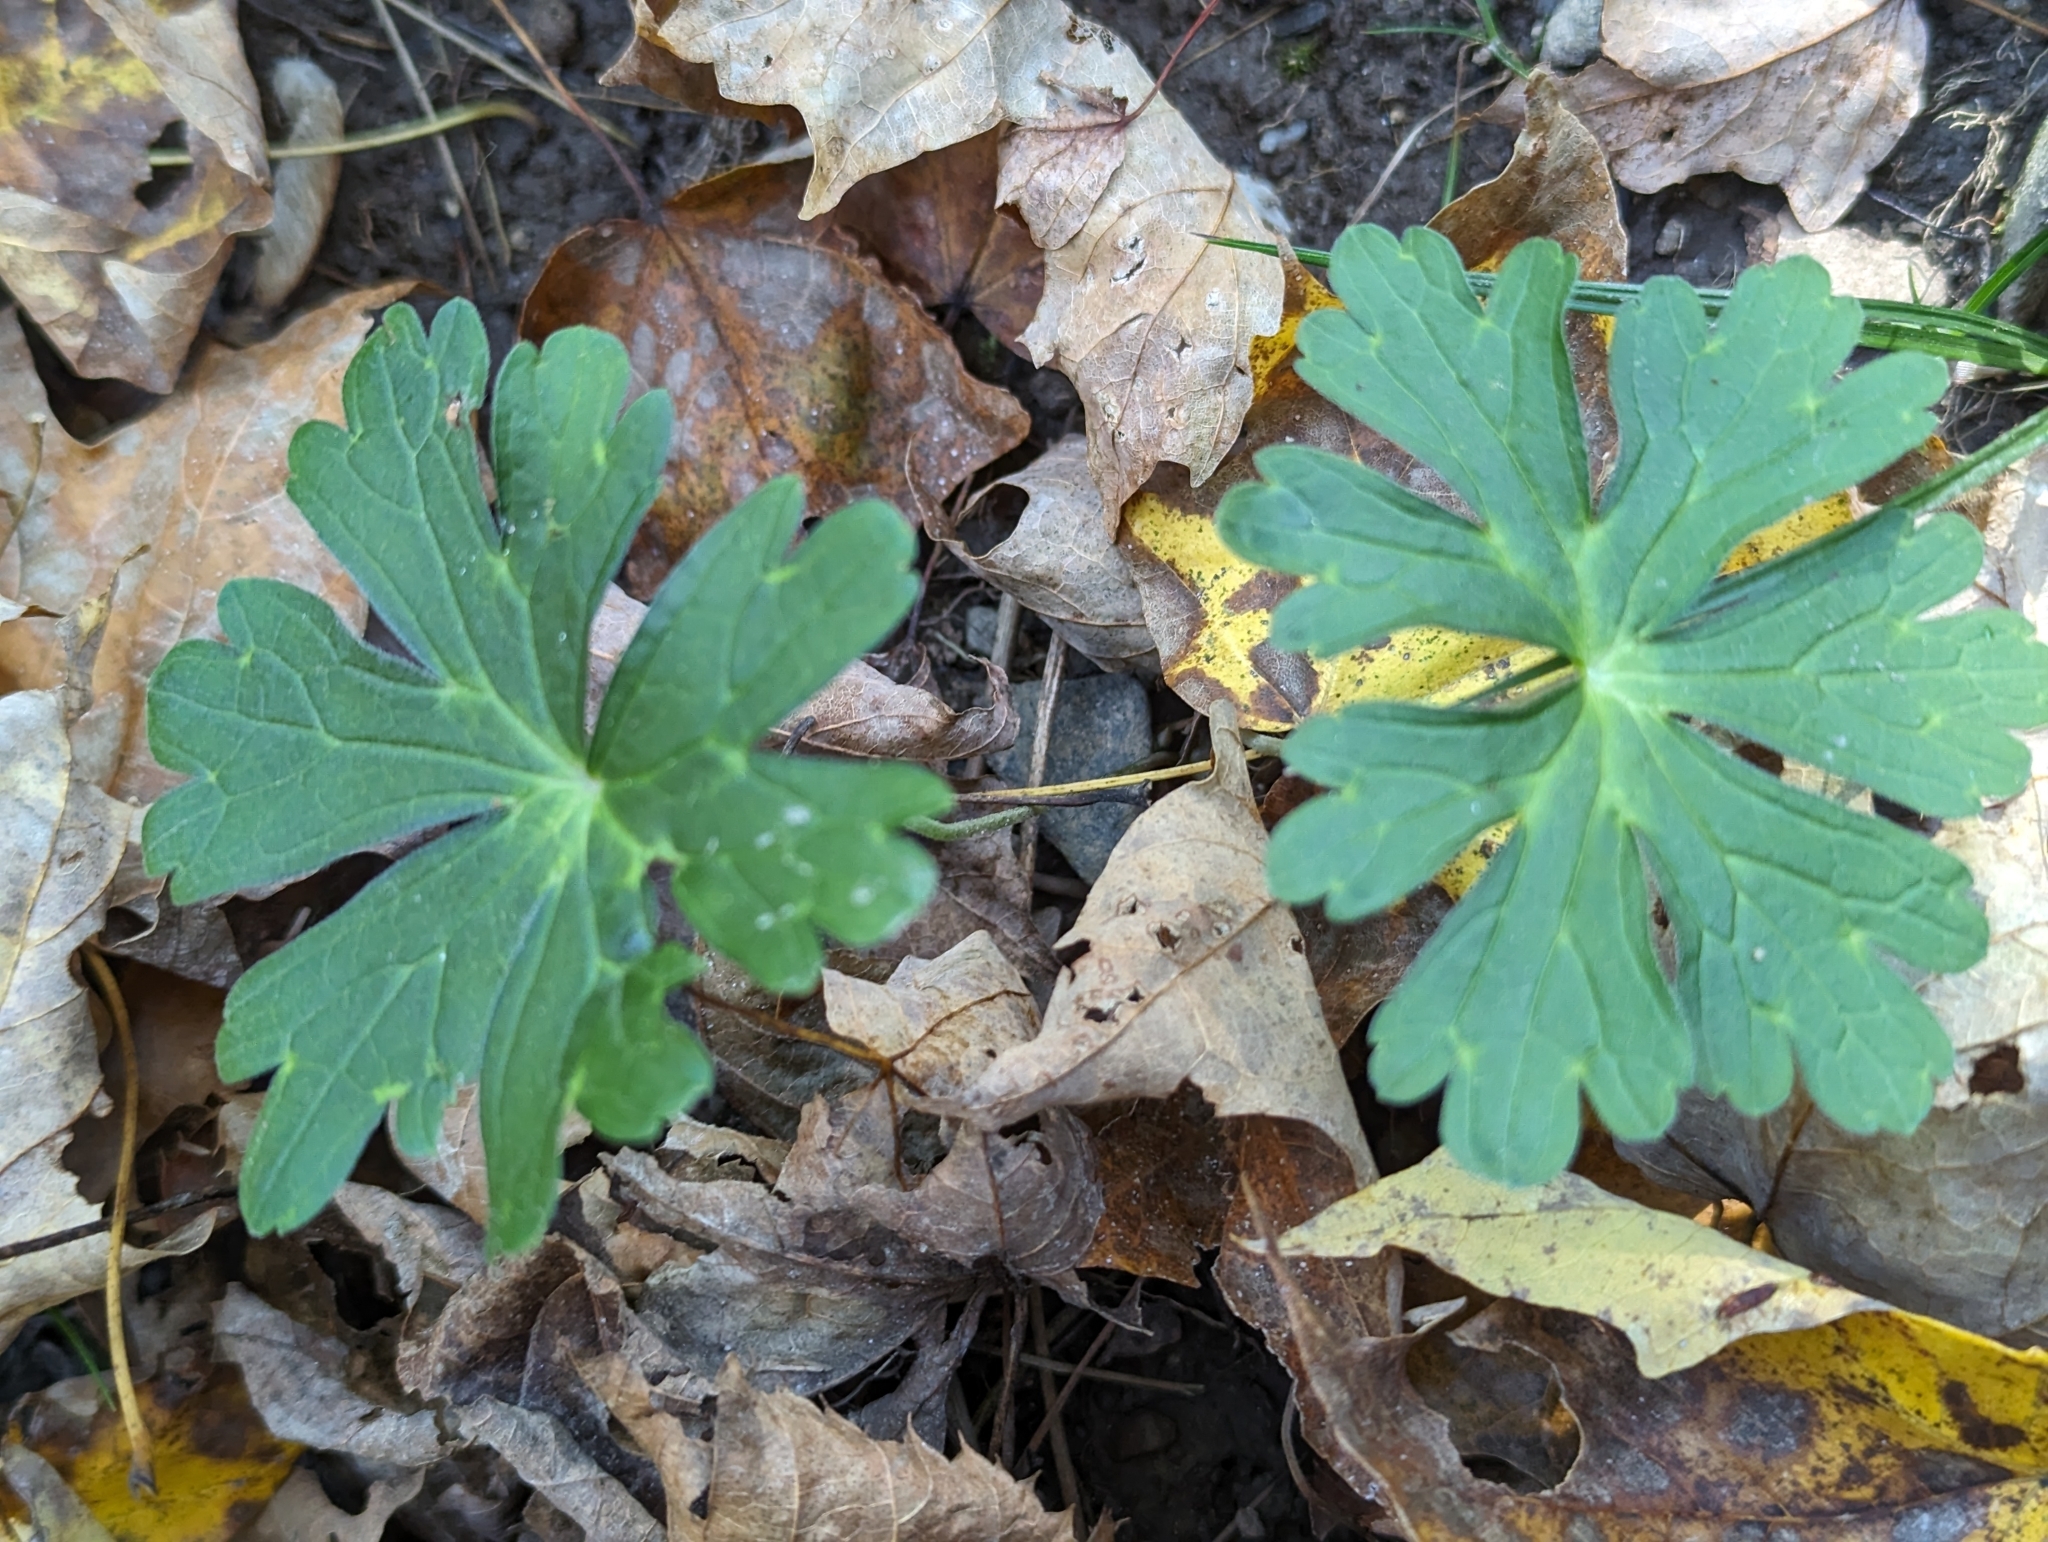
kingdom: Plantae
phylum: Tracheophyta
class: Magnoliopsida
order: Geraniales
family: Geraniaceae
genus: Geranium
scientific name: Geranium maculatum
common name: Spotted geranium
